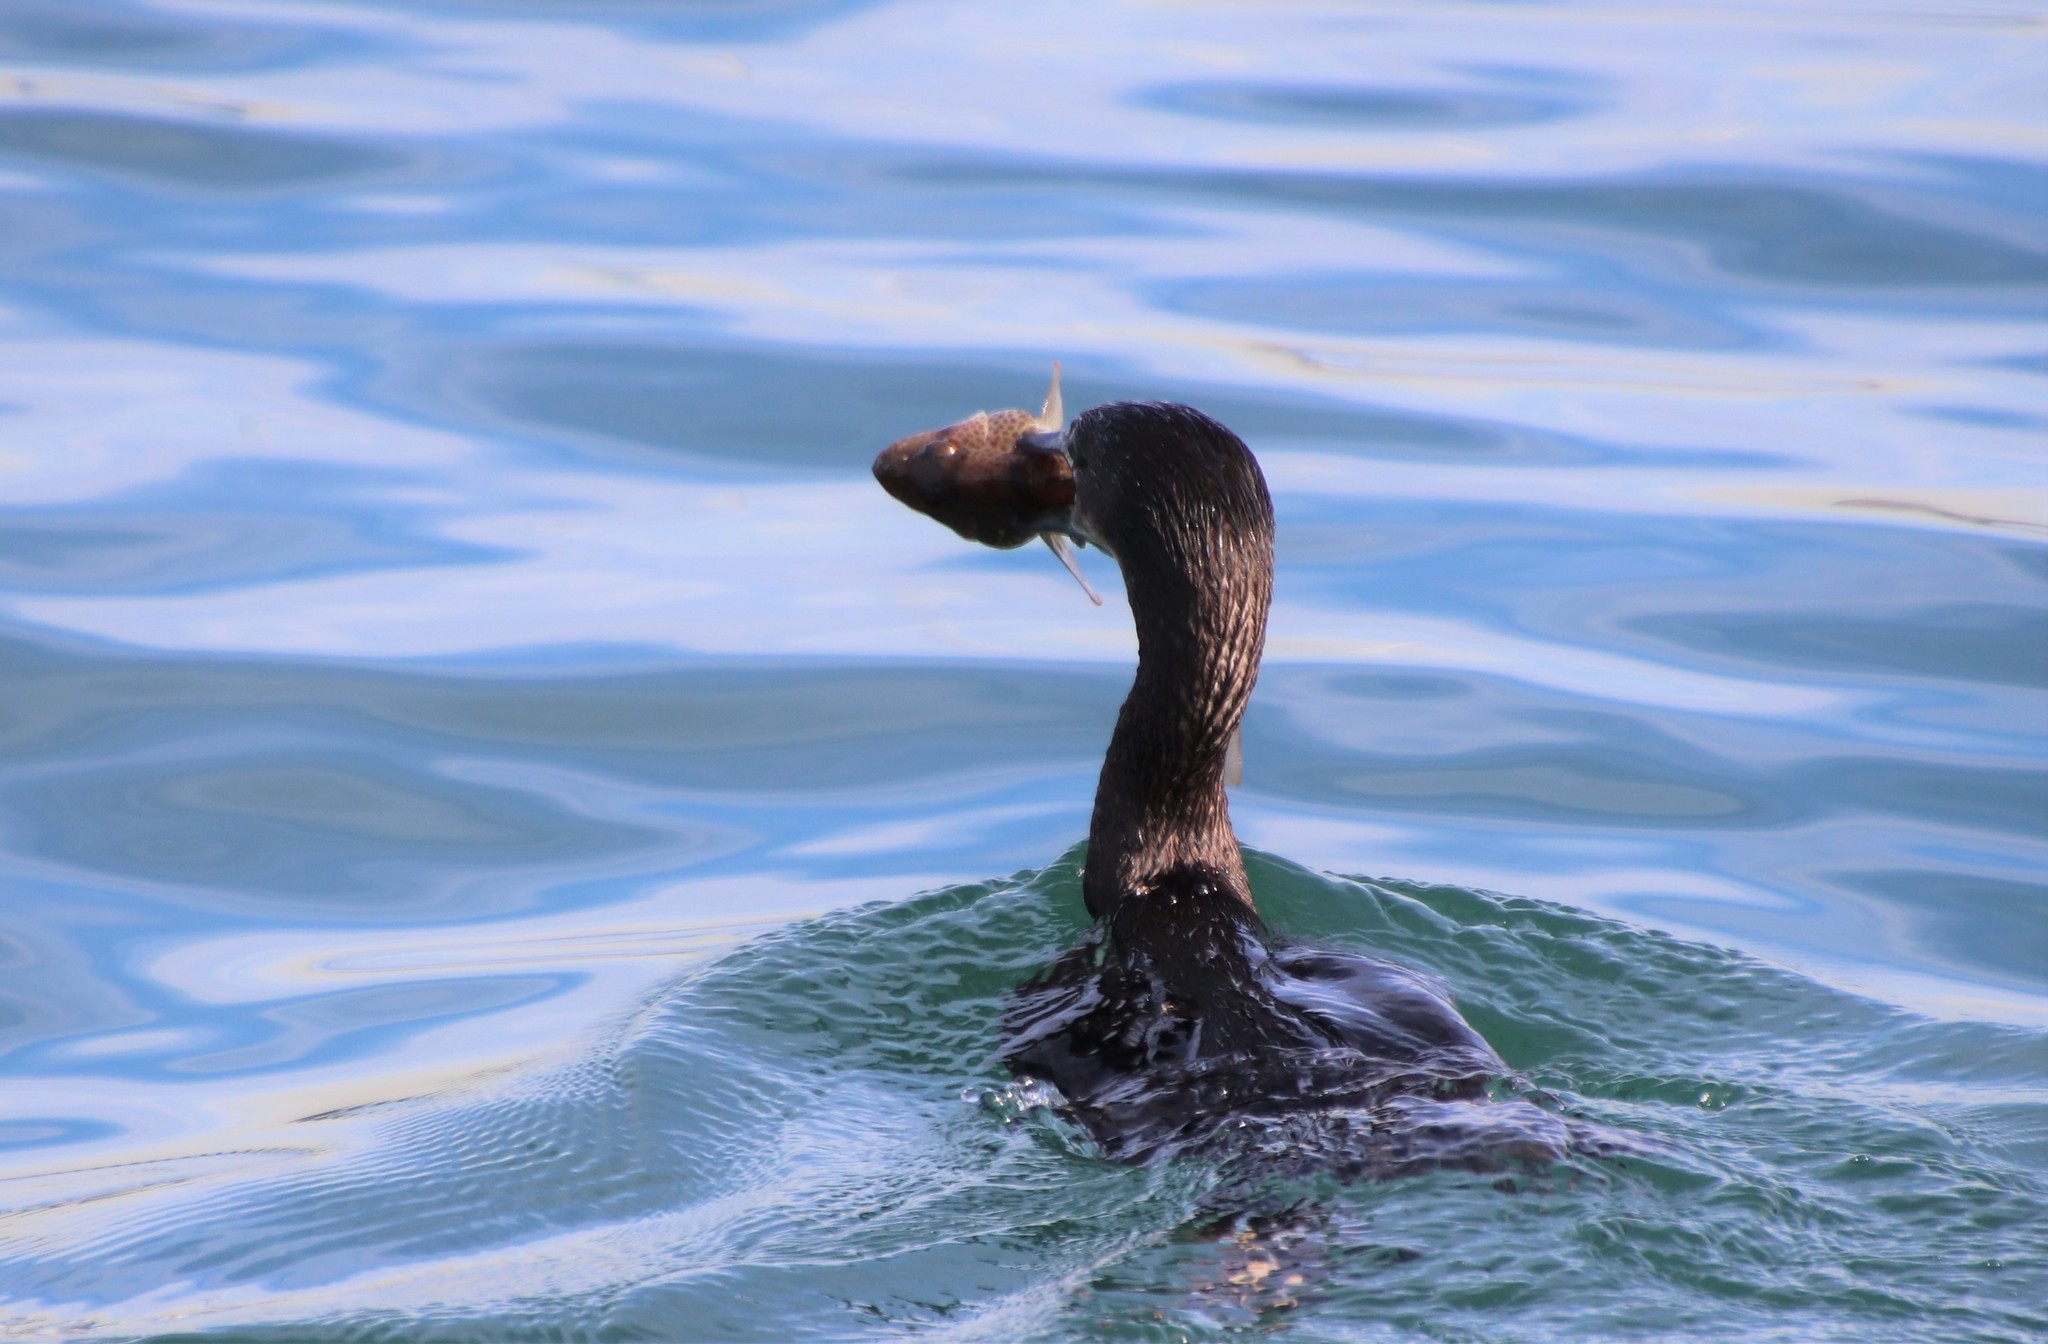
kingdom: Animalia
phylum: Chordata
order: Perciformes
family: Serranidae
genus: Paralabrax
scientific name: Paralabrax maculatofasciatus
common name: Spotted sand bass
